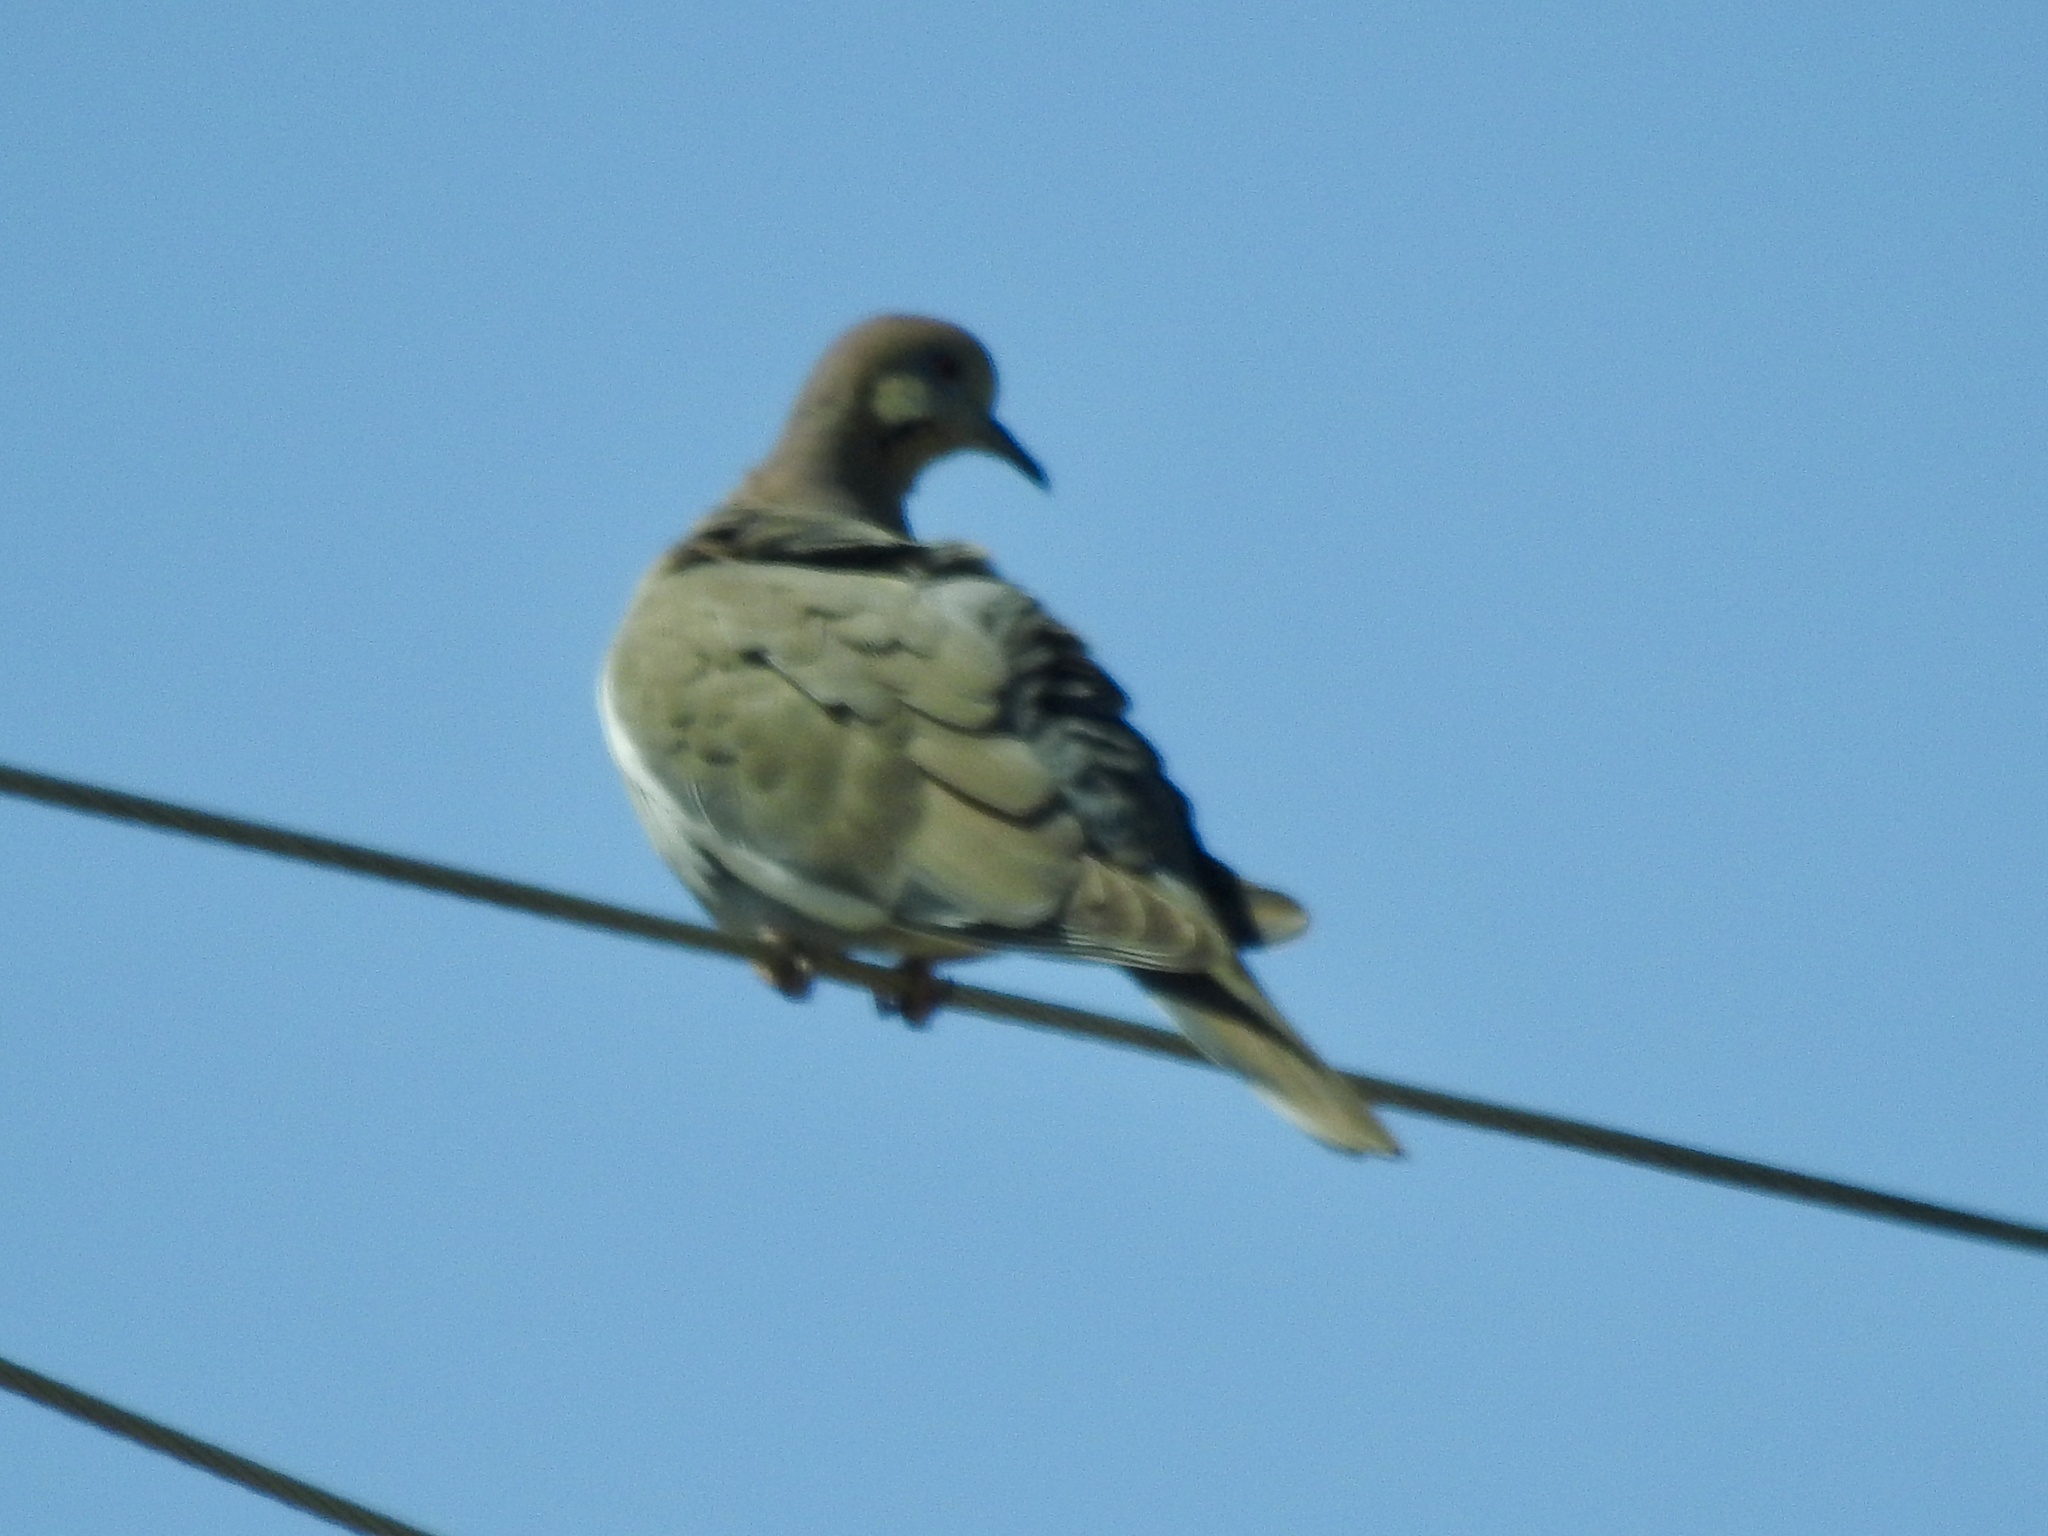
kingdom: Animalia
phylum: Chordata
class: Aves
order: Columbiformes
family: Columbidae
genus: Zenaida
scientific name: Zenaida asiatica
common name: White-winged dove
